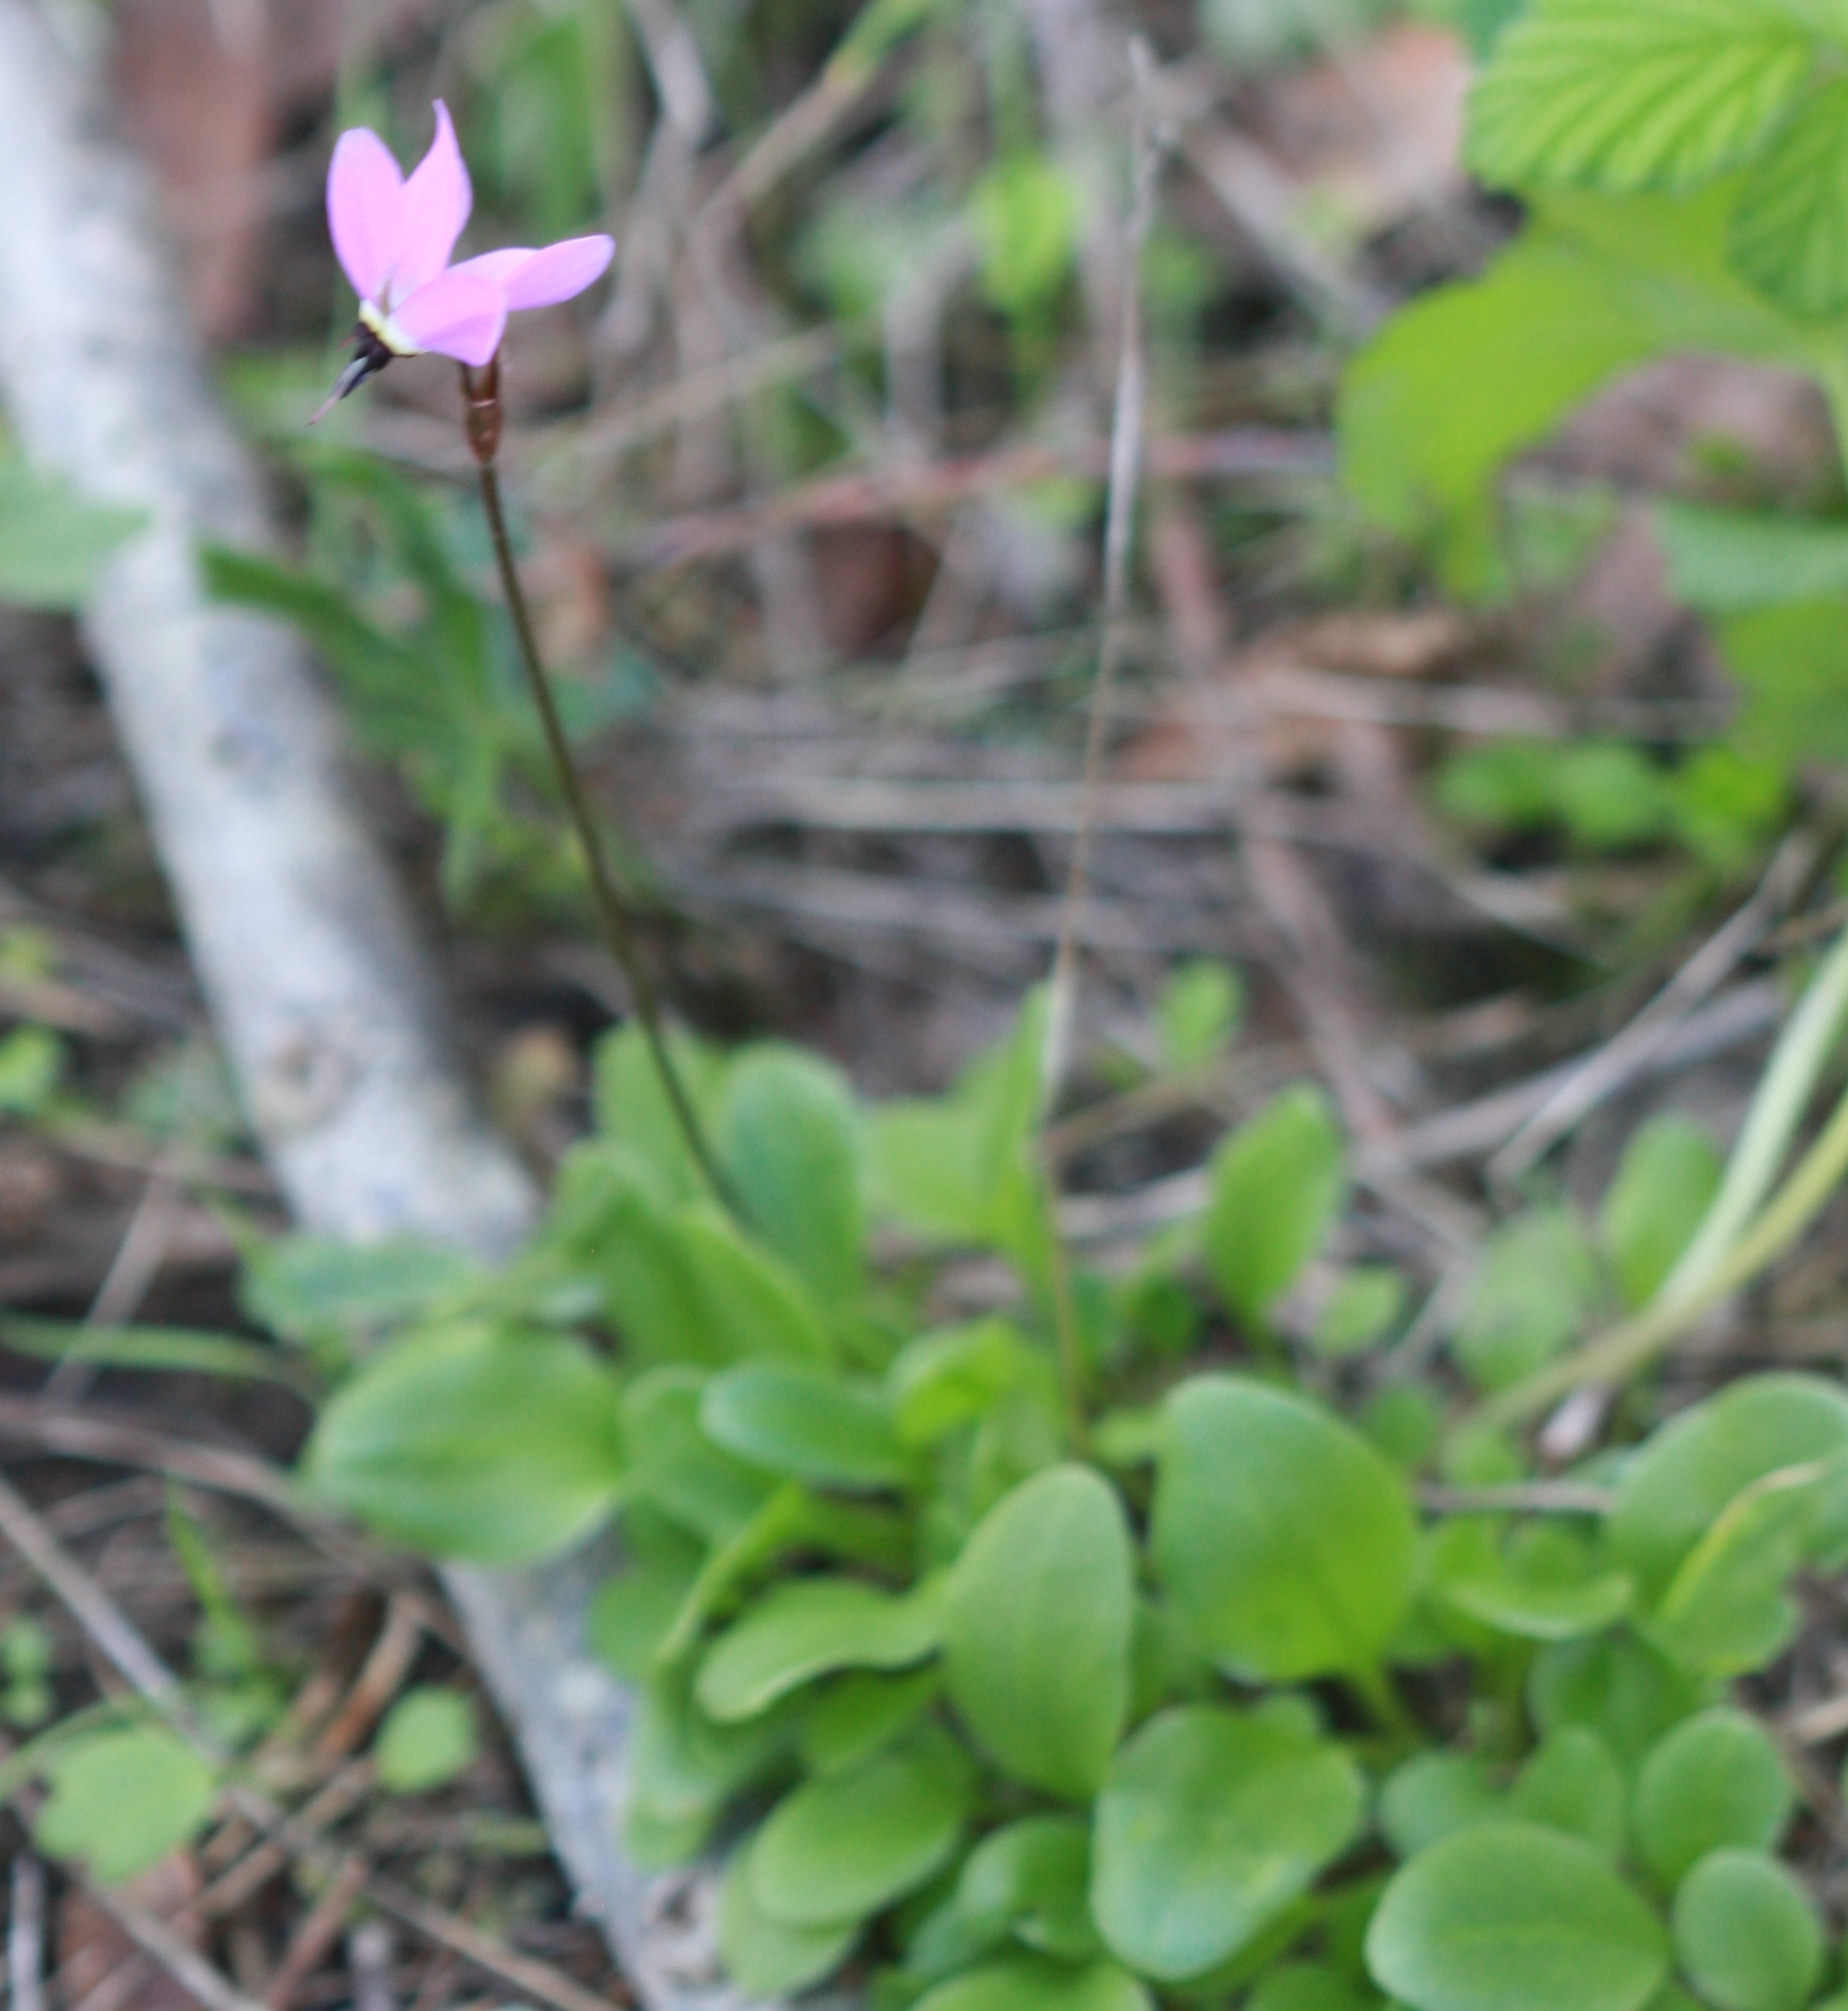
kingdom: Plantae
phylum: Tracheophyta
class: Magnoliopsida
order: Ericales
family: Primulaceae
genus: Dodecatheon
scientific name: Dodecatheon hendersonii
